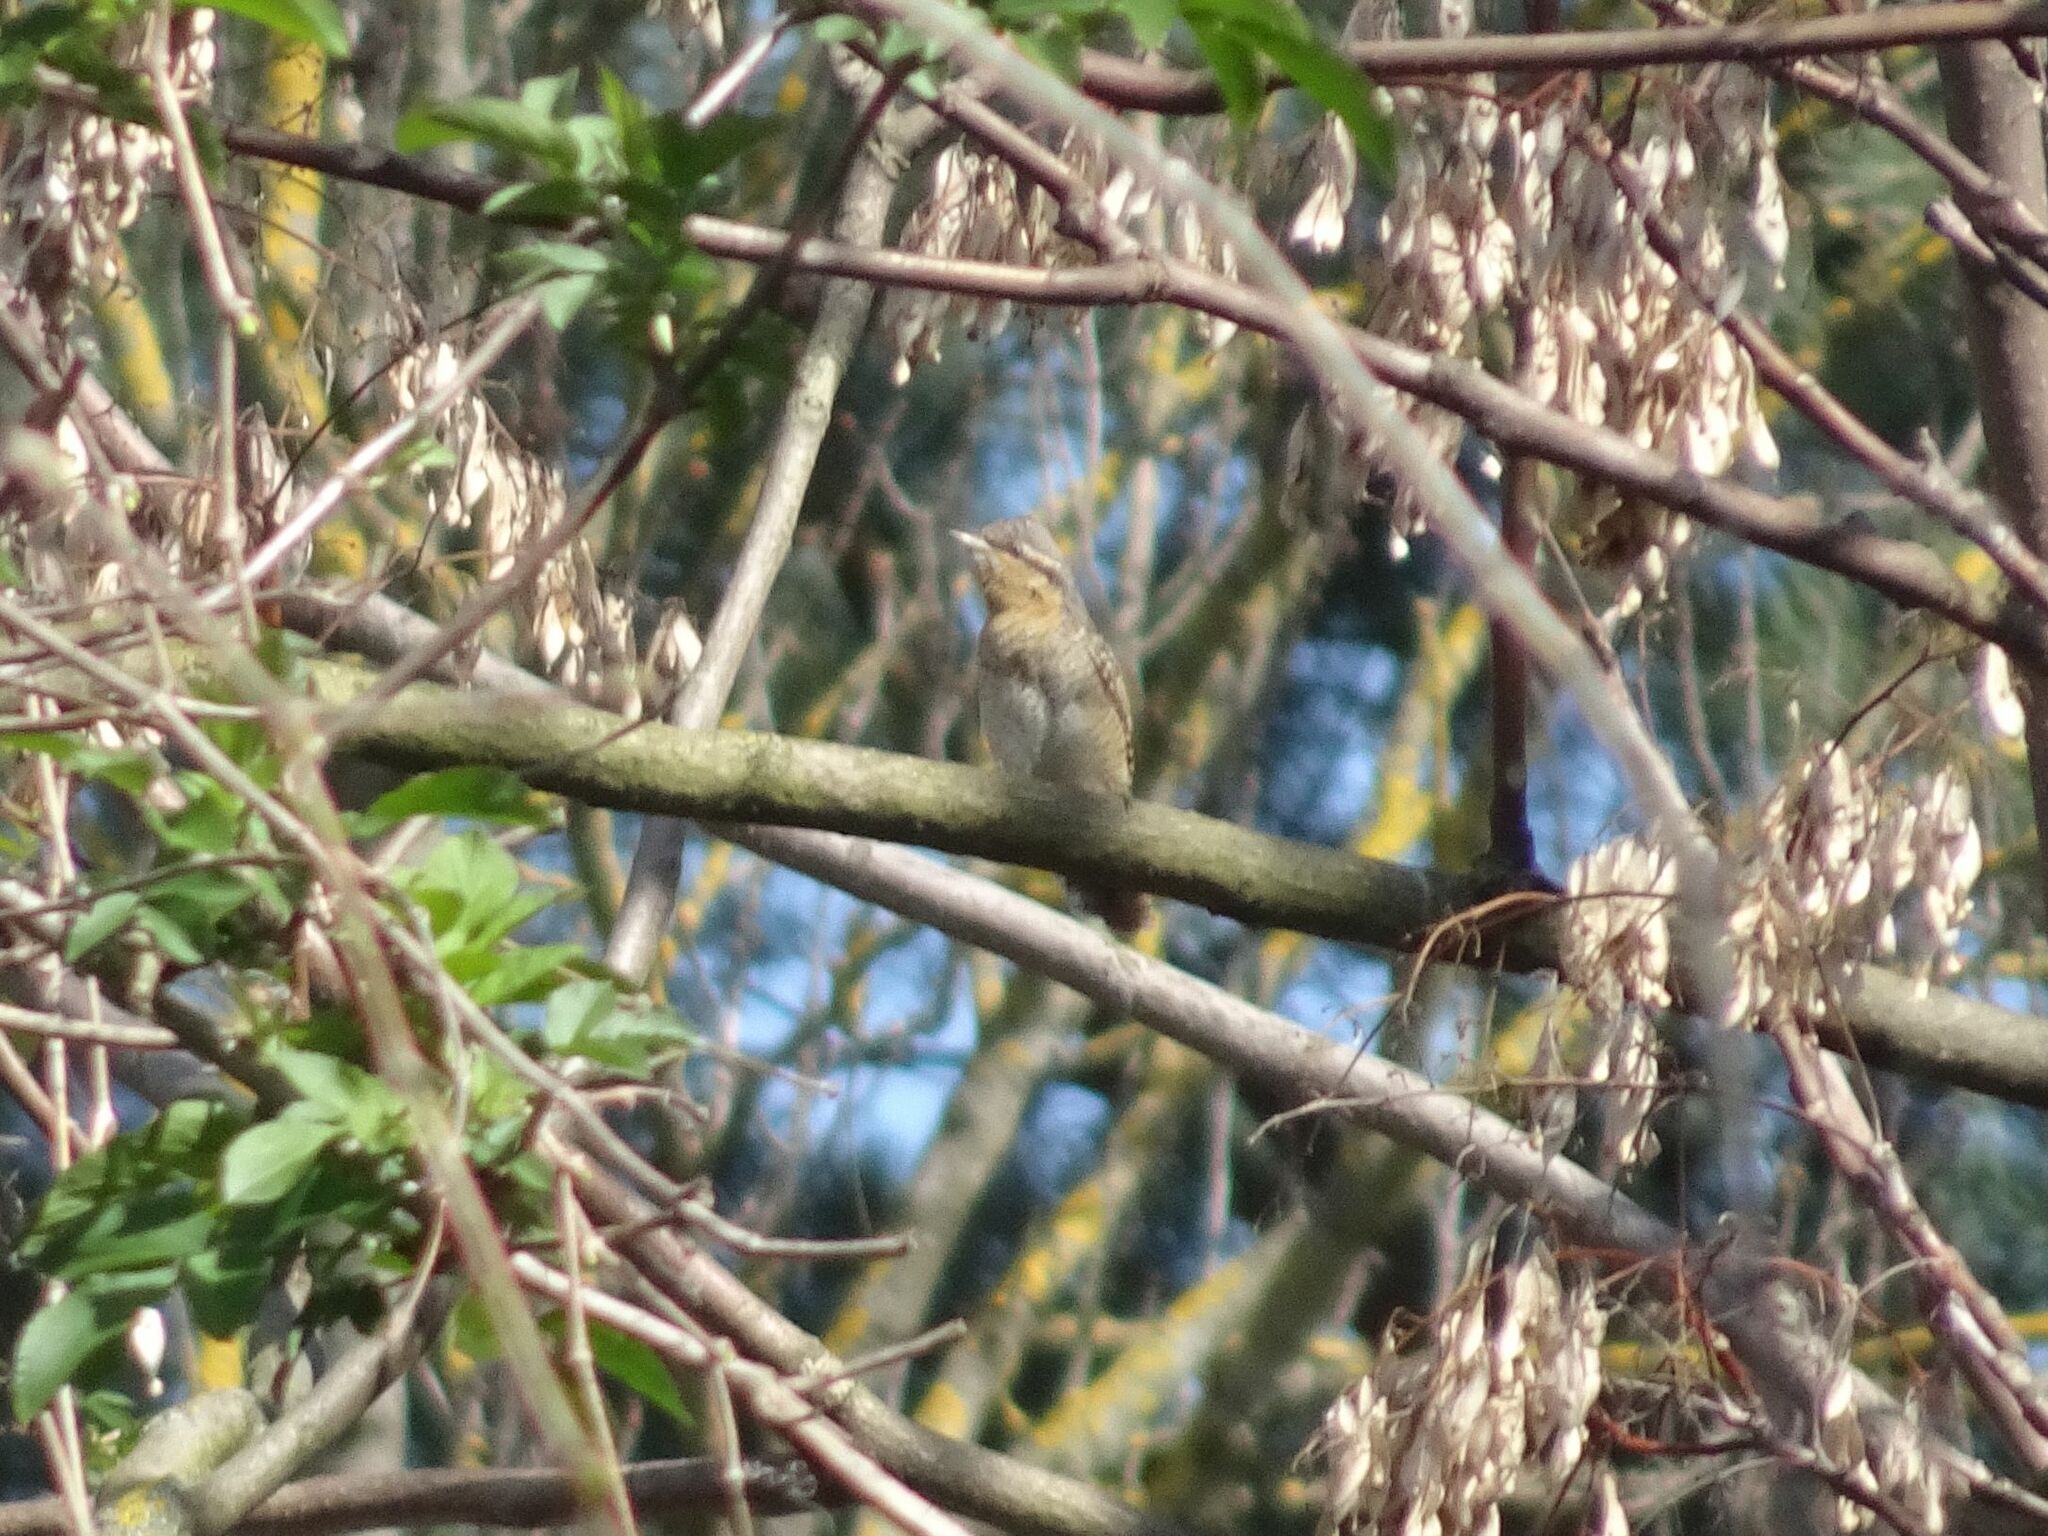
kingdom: Animalia
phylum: Chordata
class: Aves
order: Piciformes
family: Picidae
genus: Jynx
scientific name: Jynx torquilla
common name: Eurasian wryneck
